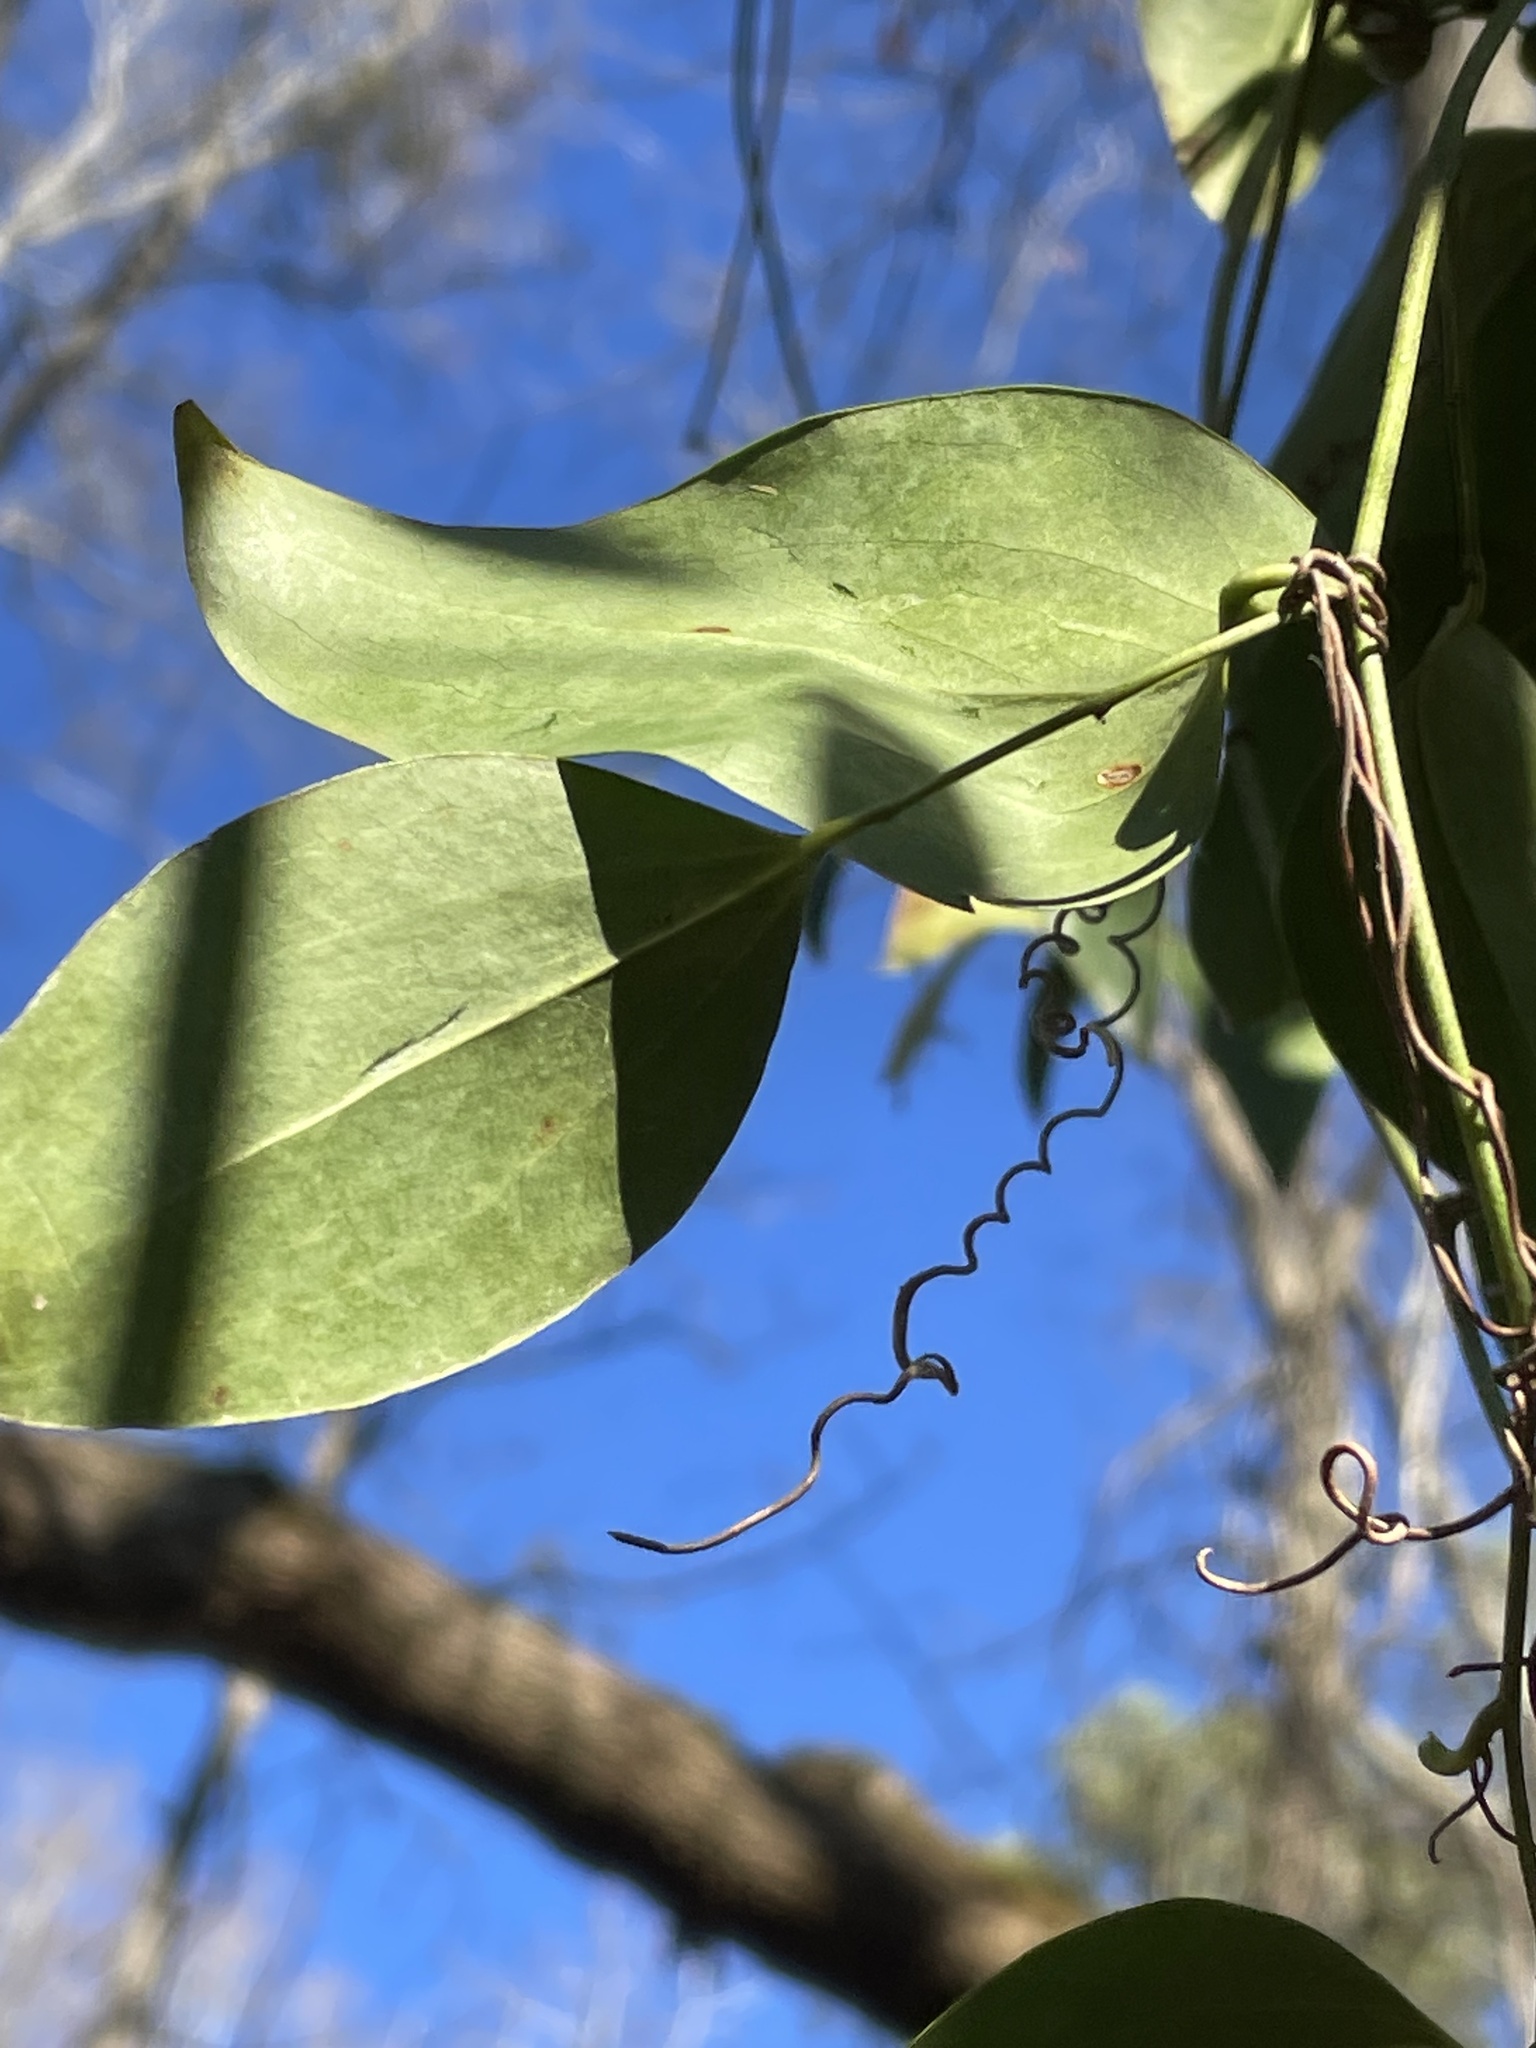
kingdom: Plantae
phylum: Tracheophyta
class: Liliopsida
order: Liliales
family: Smilacaceae
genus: Smilax
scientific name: Smilax maritima
